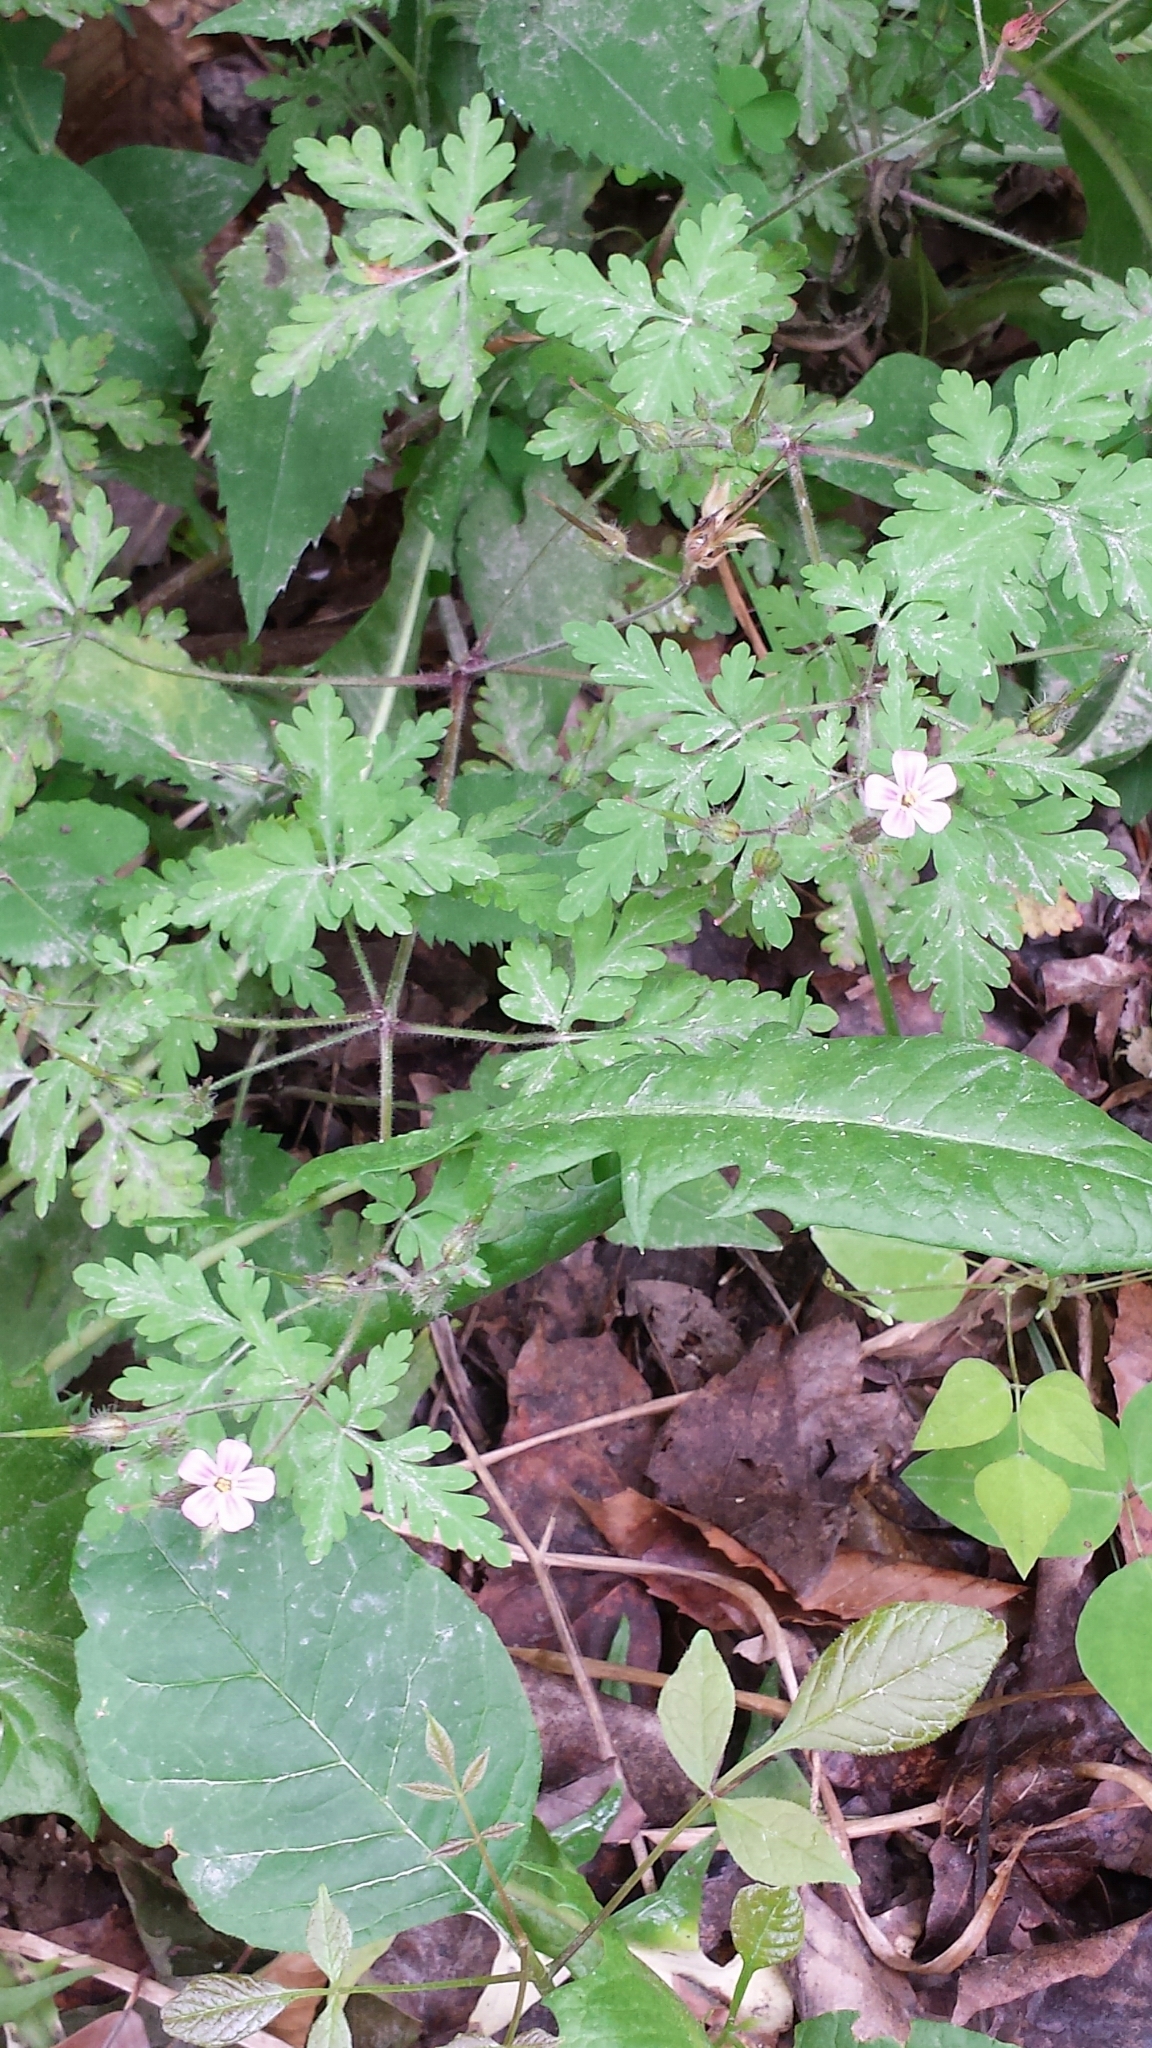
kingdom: Plantae
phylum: Tracheophyta
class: Magnoliopsida
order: Geraniales
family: Geraniaceae
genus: Geranium
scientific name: Geranium robertianum
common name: Herb-robert
